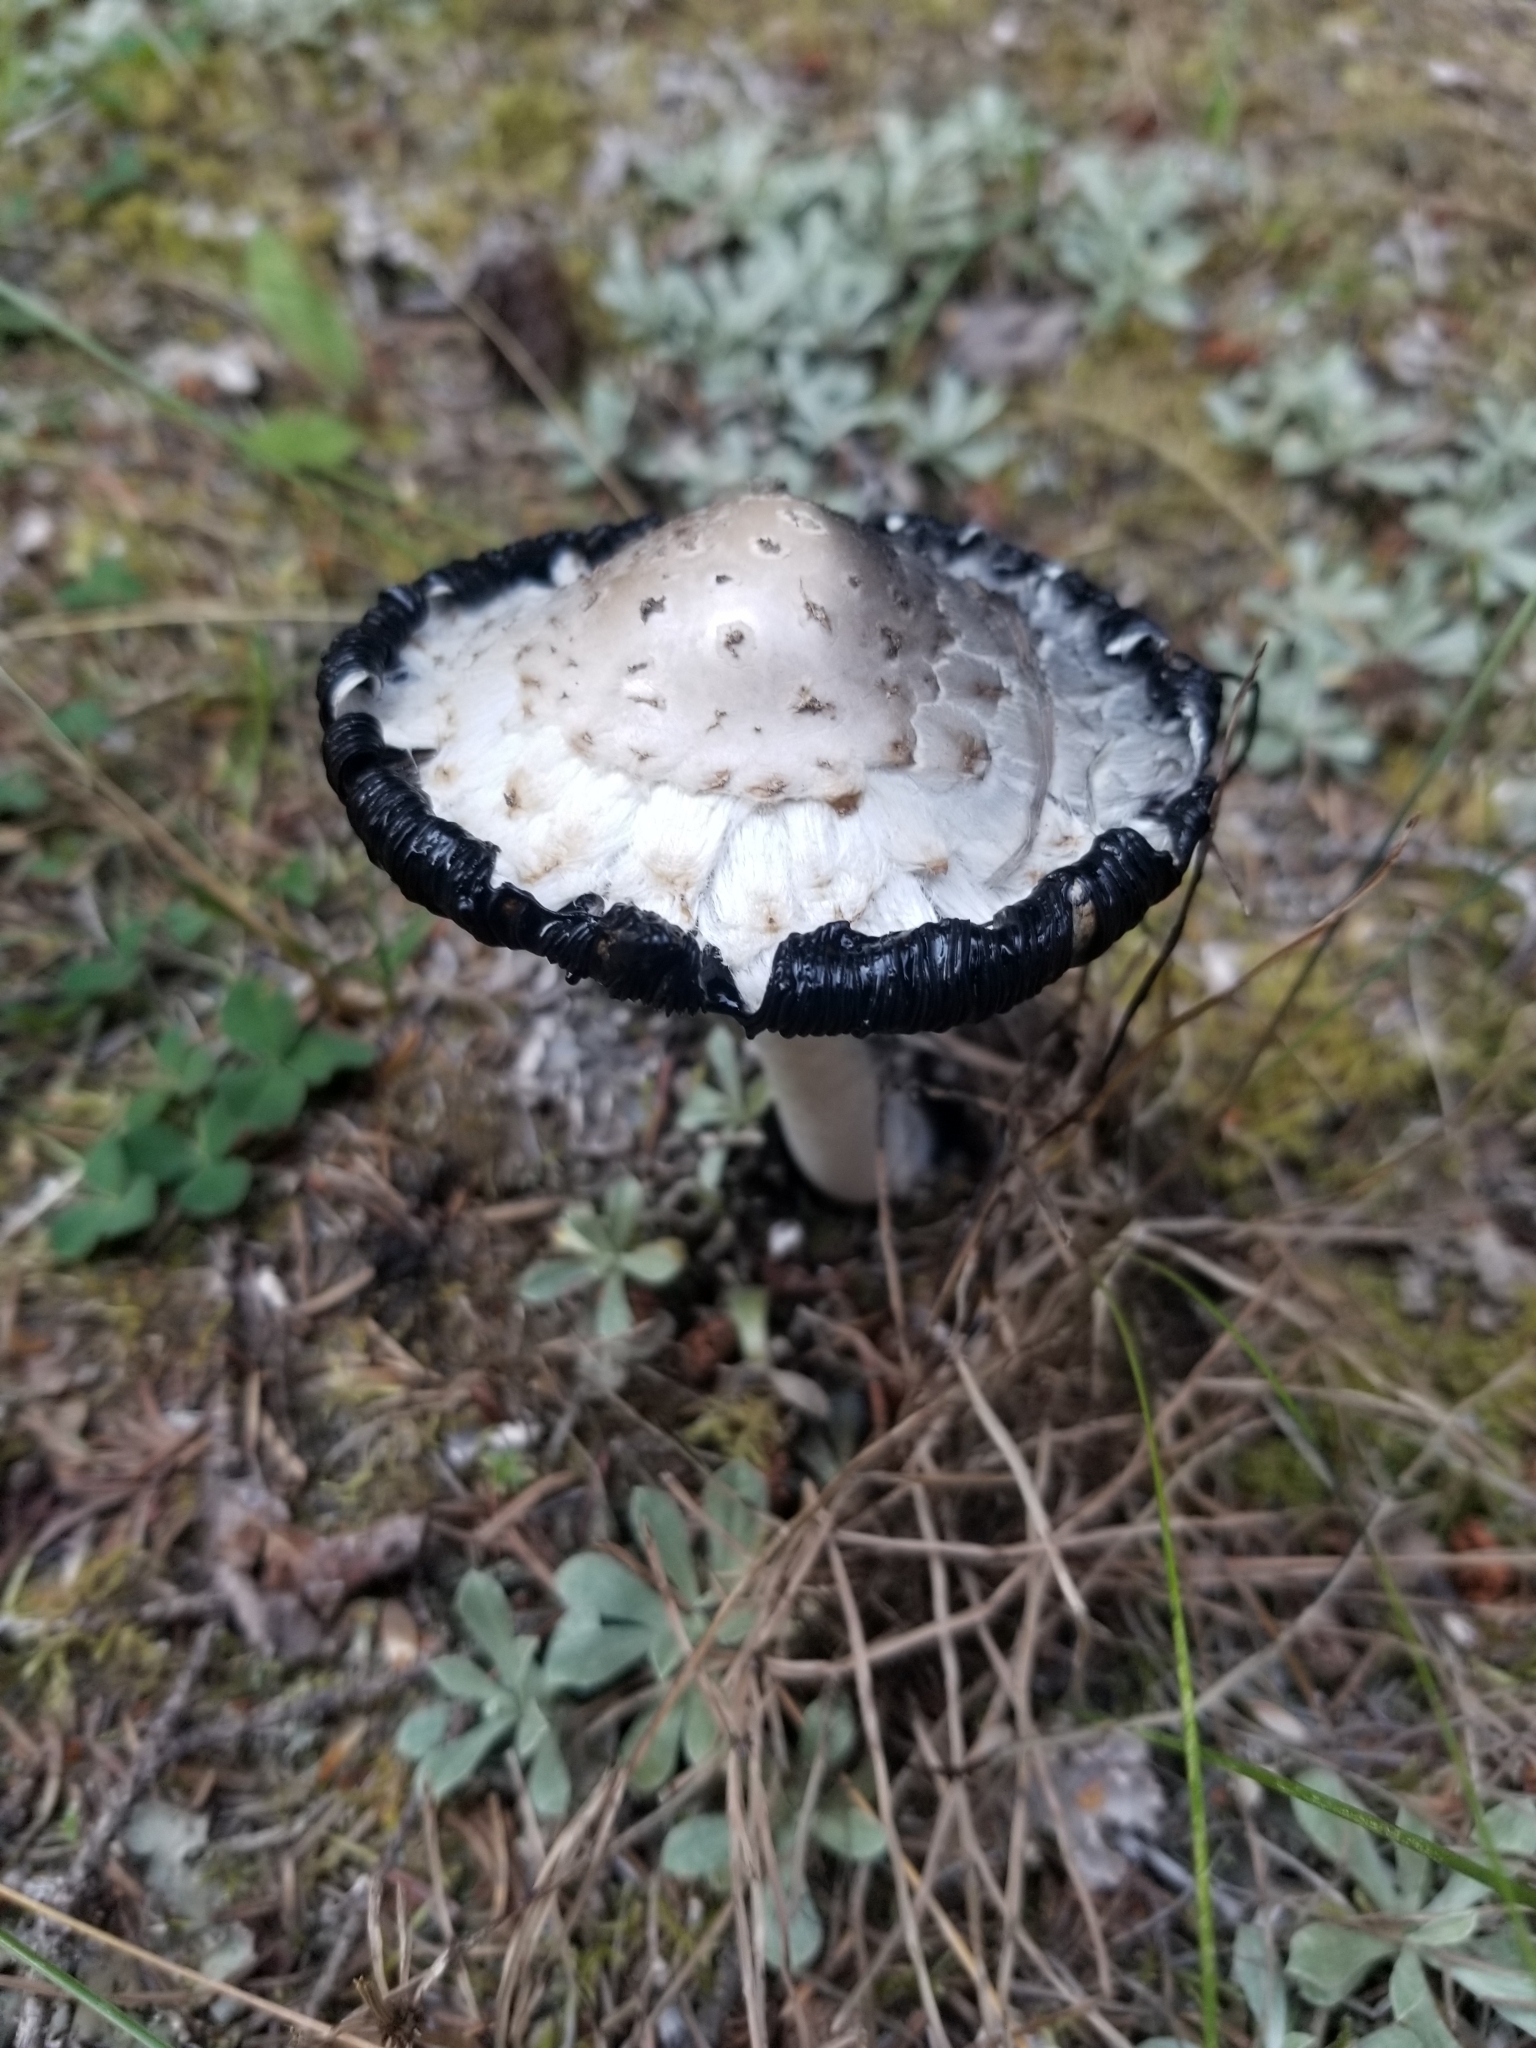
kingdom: Fungi
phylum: Basidiomycota
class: Agaricomycetes
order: Agaricales
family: Agaricaceae
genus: Coprinus
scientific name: Coprinus comatus
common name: Lawyer's wig
